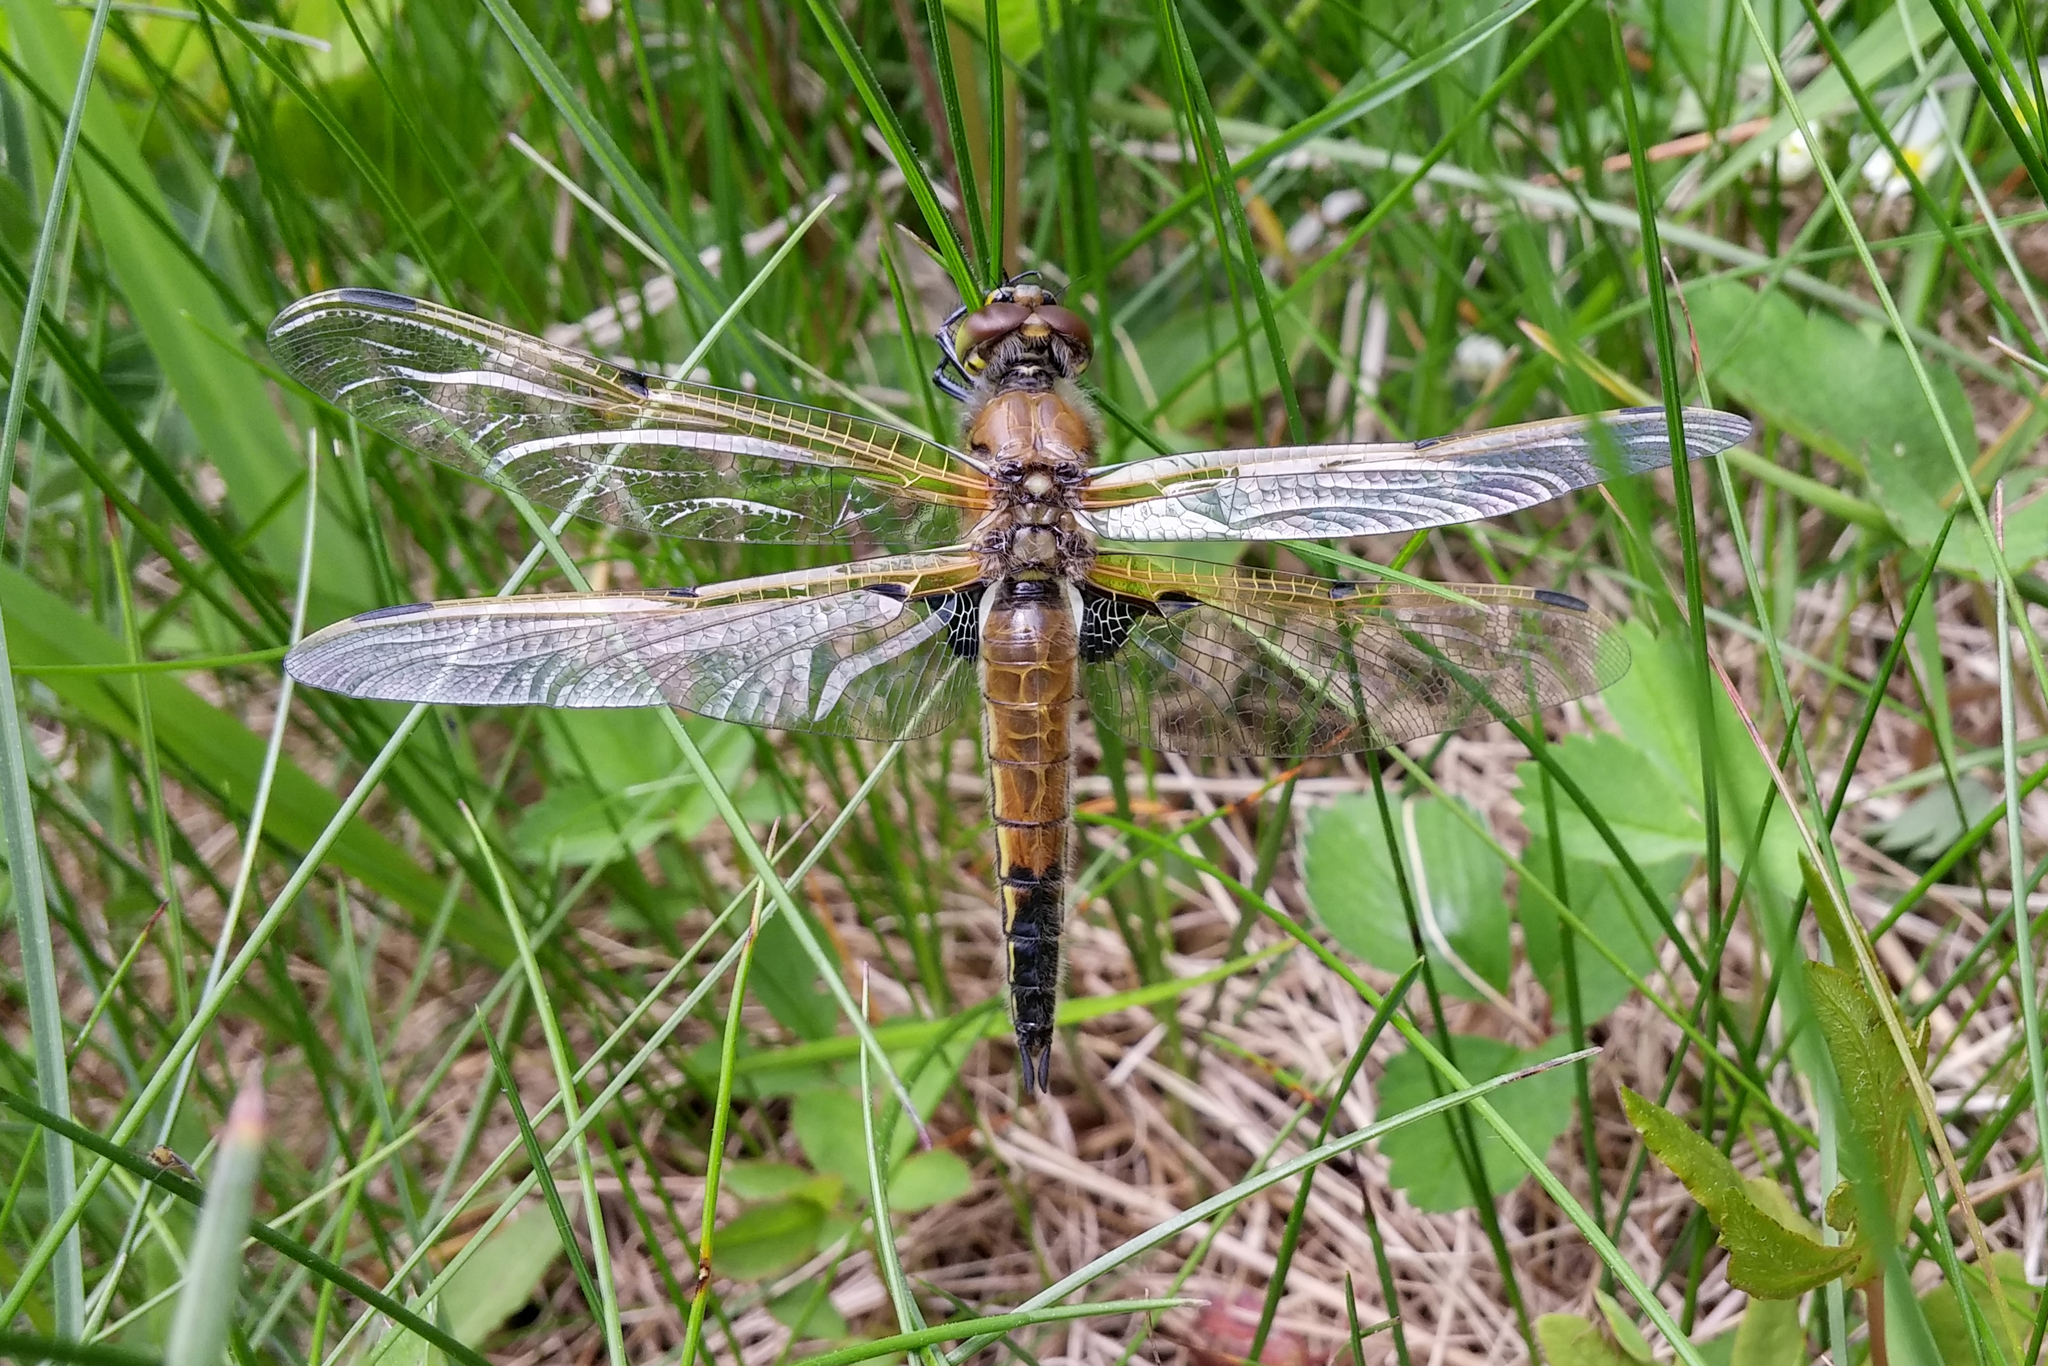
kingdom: Animalia
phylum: Arthropoda
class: Insecta
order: Odonata
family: Libellulidae
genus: Libellula
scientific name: Libellula quadrimaculata
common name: Four-spotted chaser
